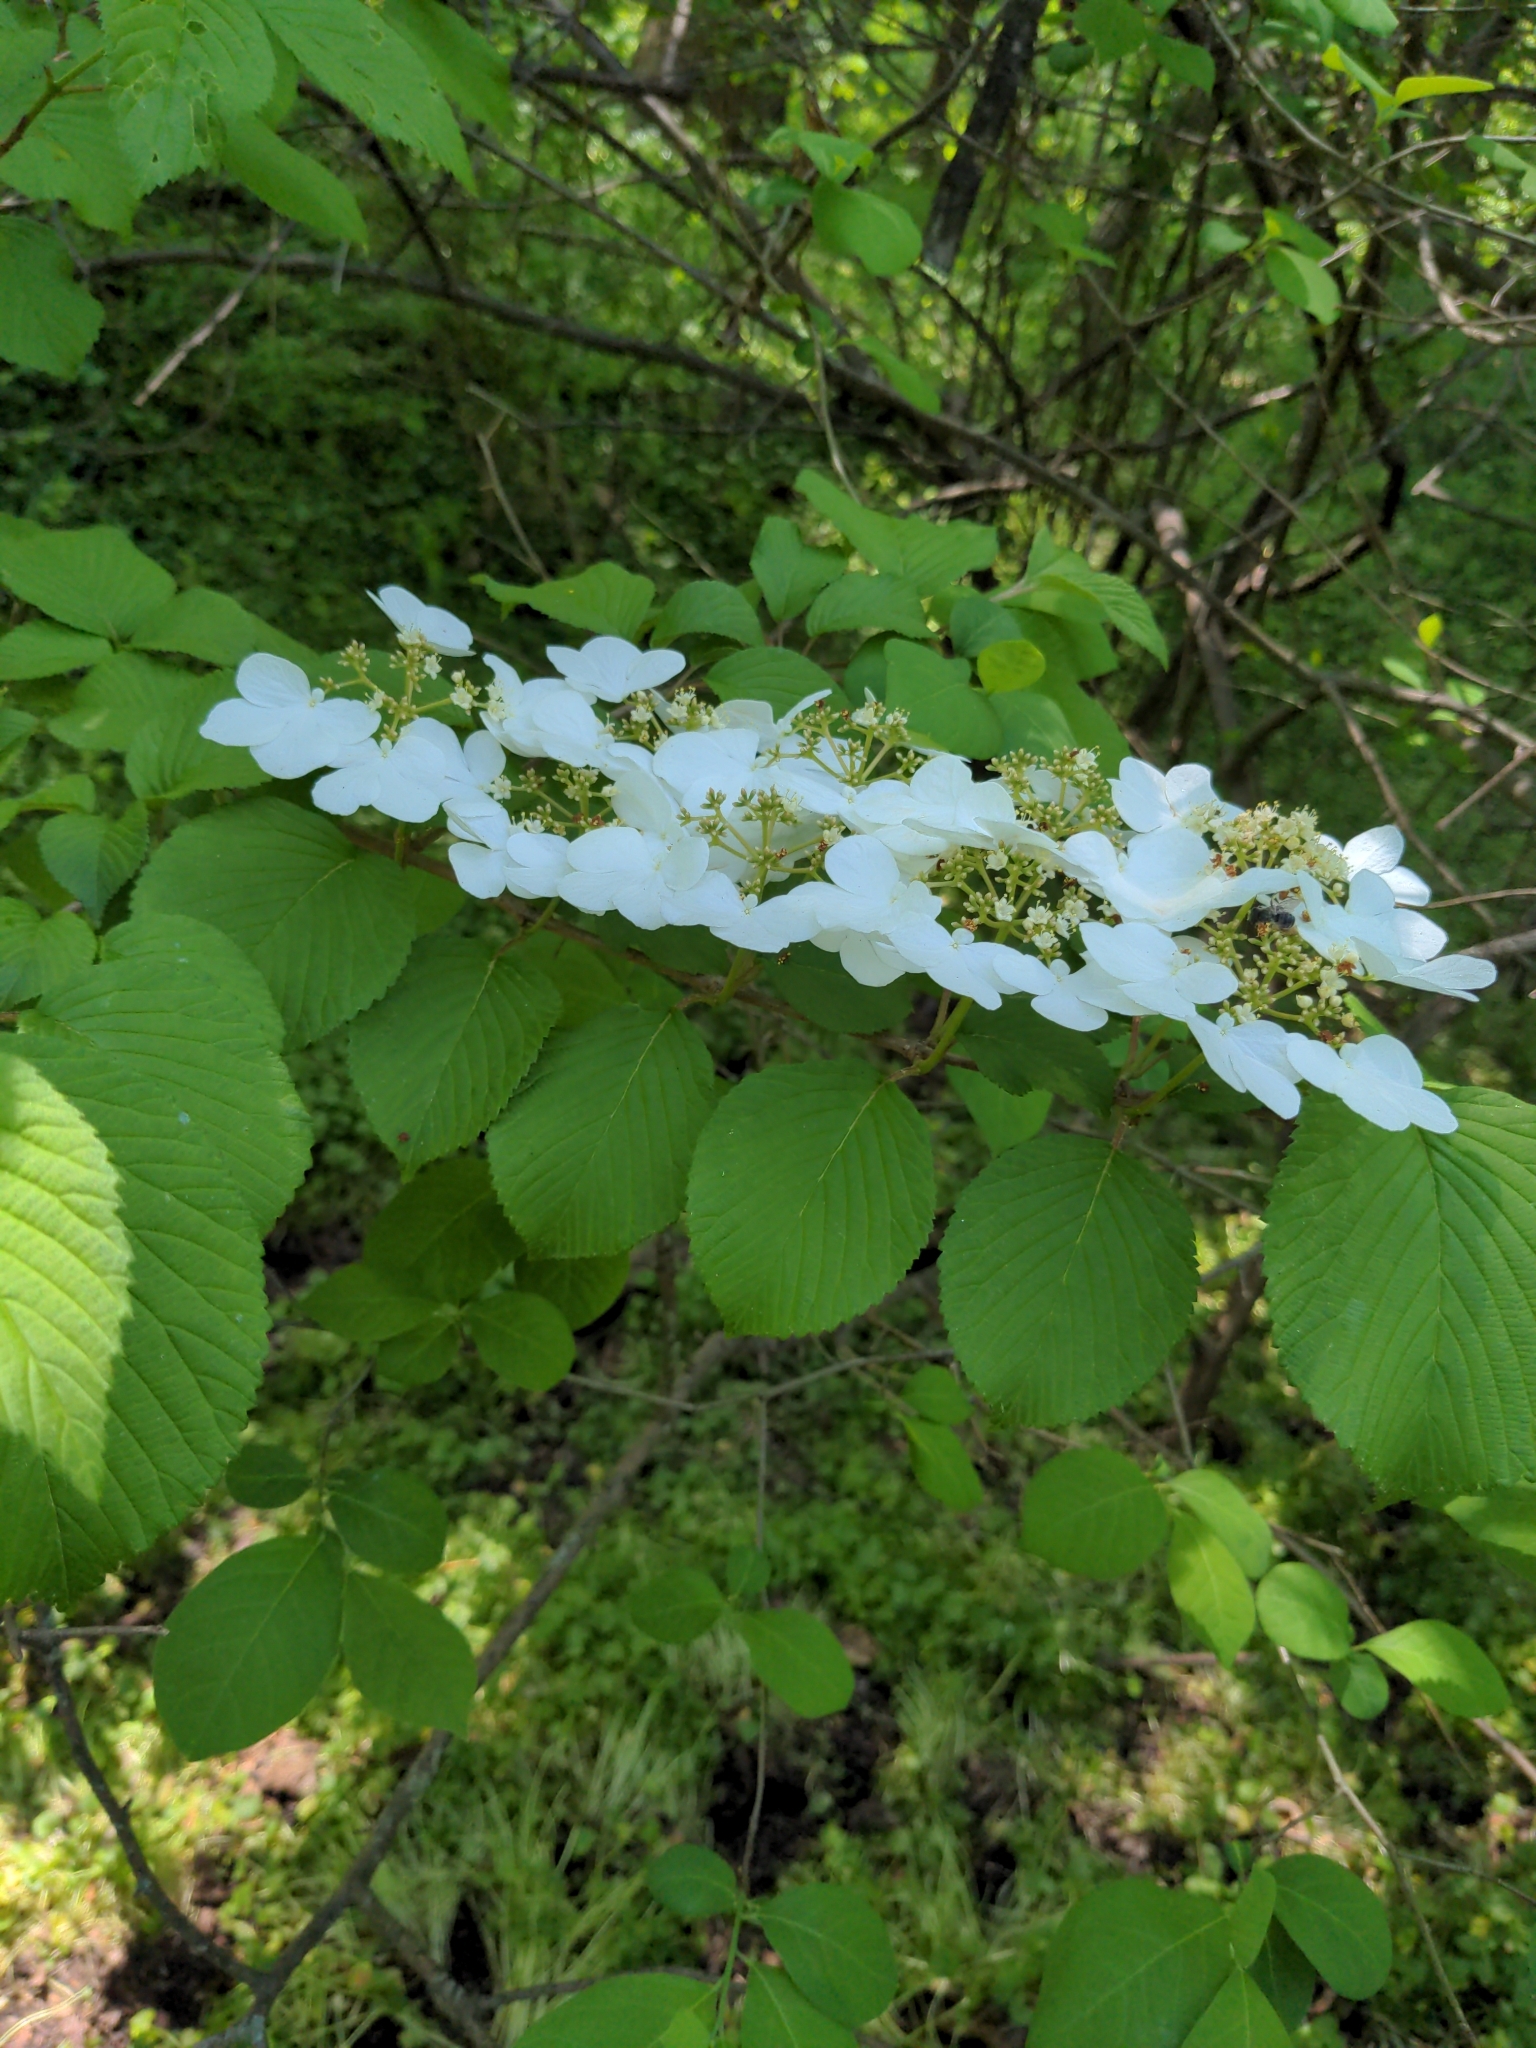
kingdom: Plantae
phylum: Tracheophyta
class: Magnoliopsida
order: Dipsacales
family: Viburnaceae
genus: Viburnum
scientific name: Viburnum plicatum
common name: Japanese snowball
